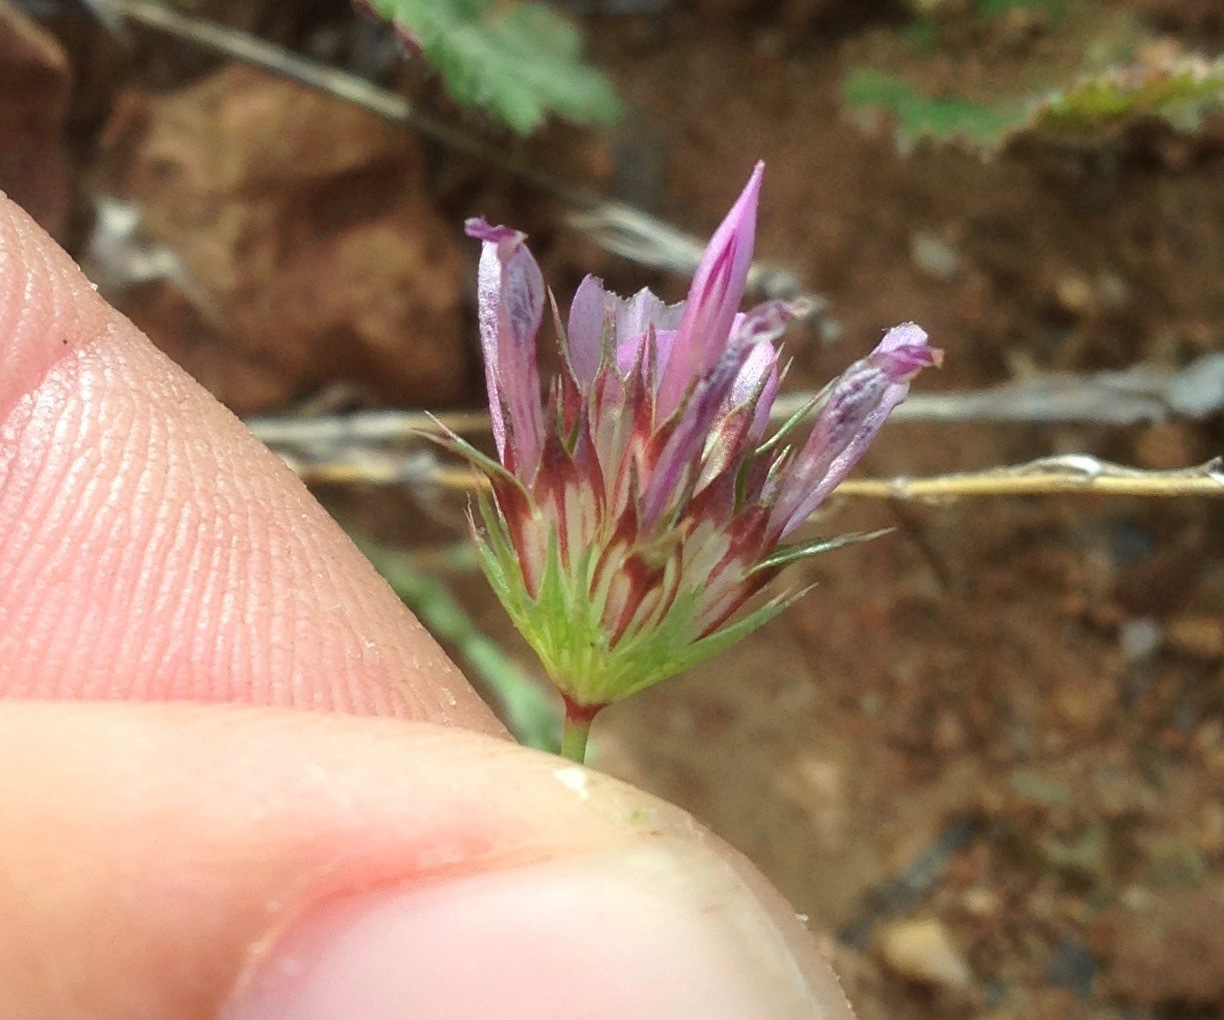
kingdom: Plantae
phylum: Tracheophyta
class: Magnoliopsida
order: Fabales
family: Fabaceae
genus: Trifolium
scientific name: Trifolium willdenovii
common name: Tomcat clover
